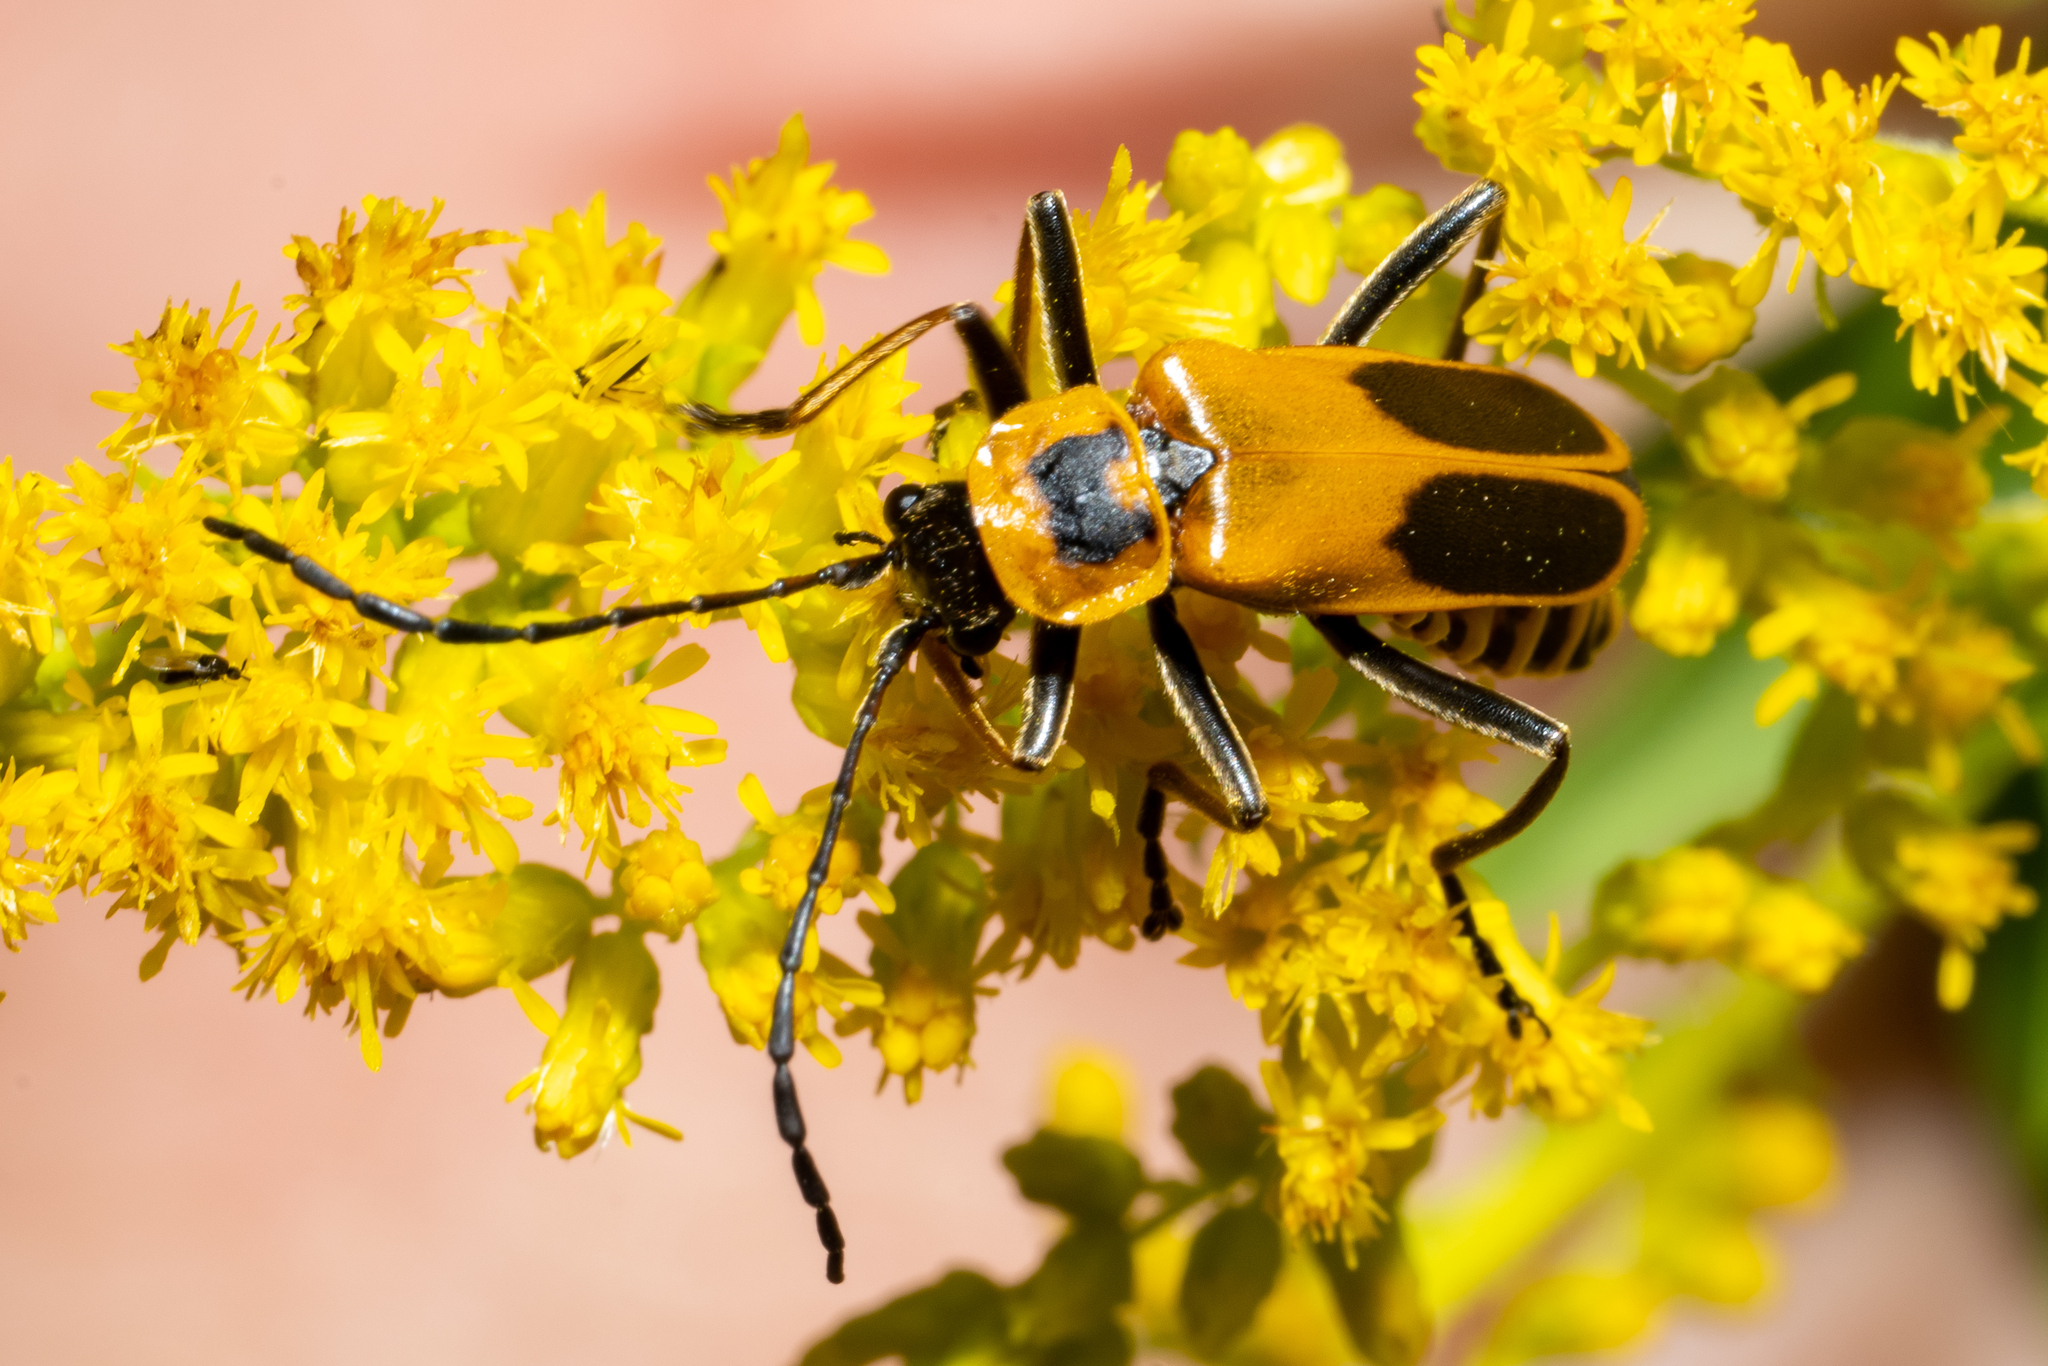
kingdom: Animalia
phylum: Arthropoda
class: Insecta
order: Coleoptera
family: Cantharidae
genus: Chauliognathus
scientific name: Chauliognathus pensylvanicus
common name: Goldenrod soldier beetle
